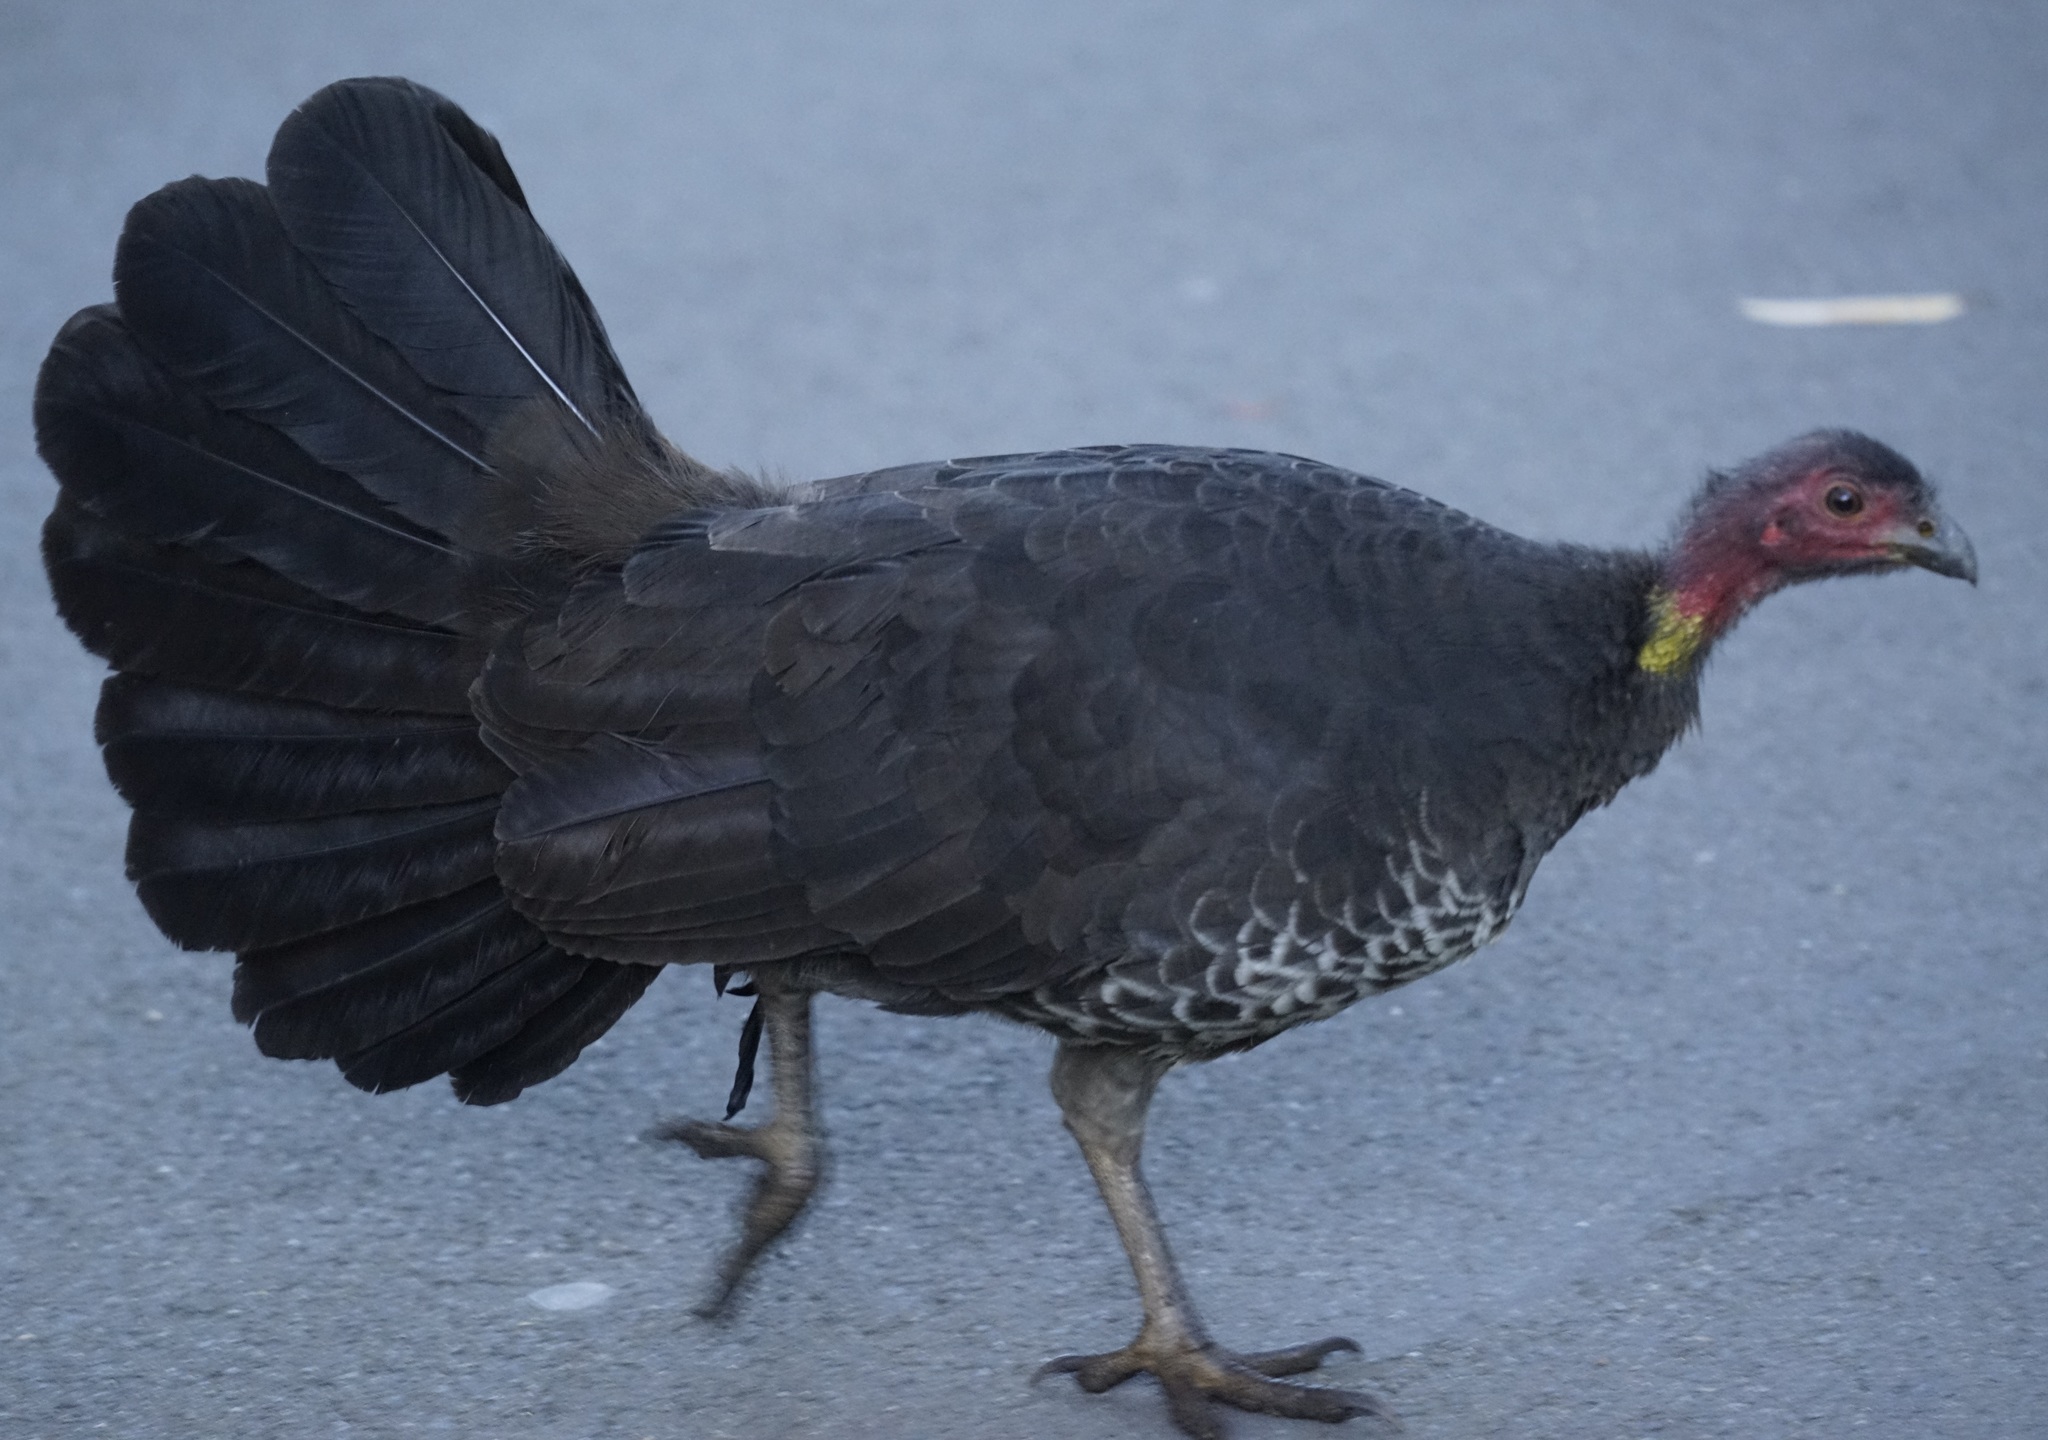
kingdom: Animalia
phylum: Chordata
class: Aves
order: Galliformes
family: Megapodiidae
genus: Alectura
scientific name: Alectura lathami
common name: Australian brushturkey
